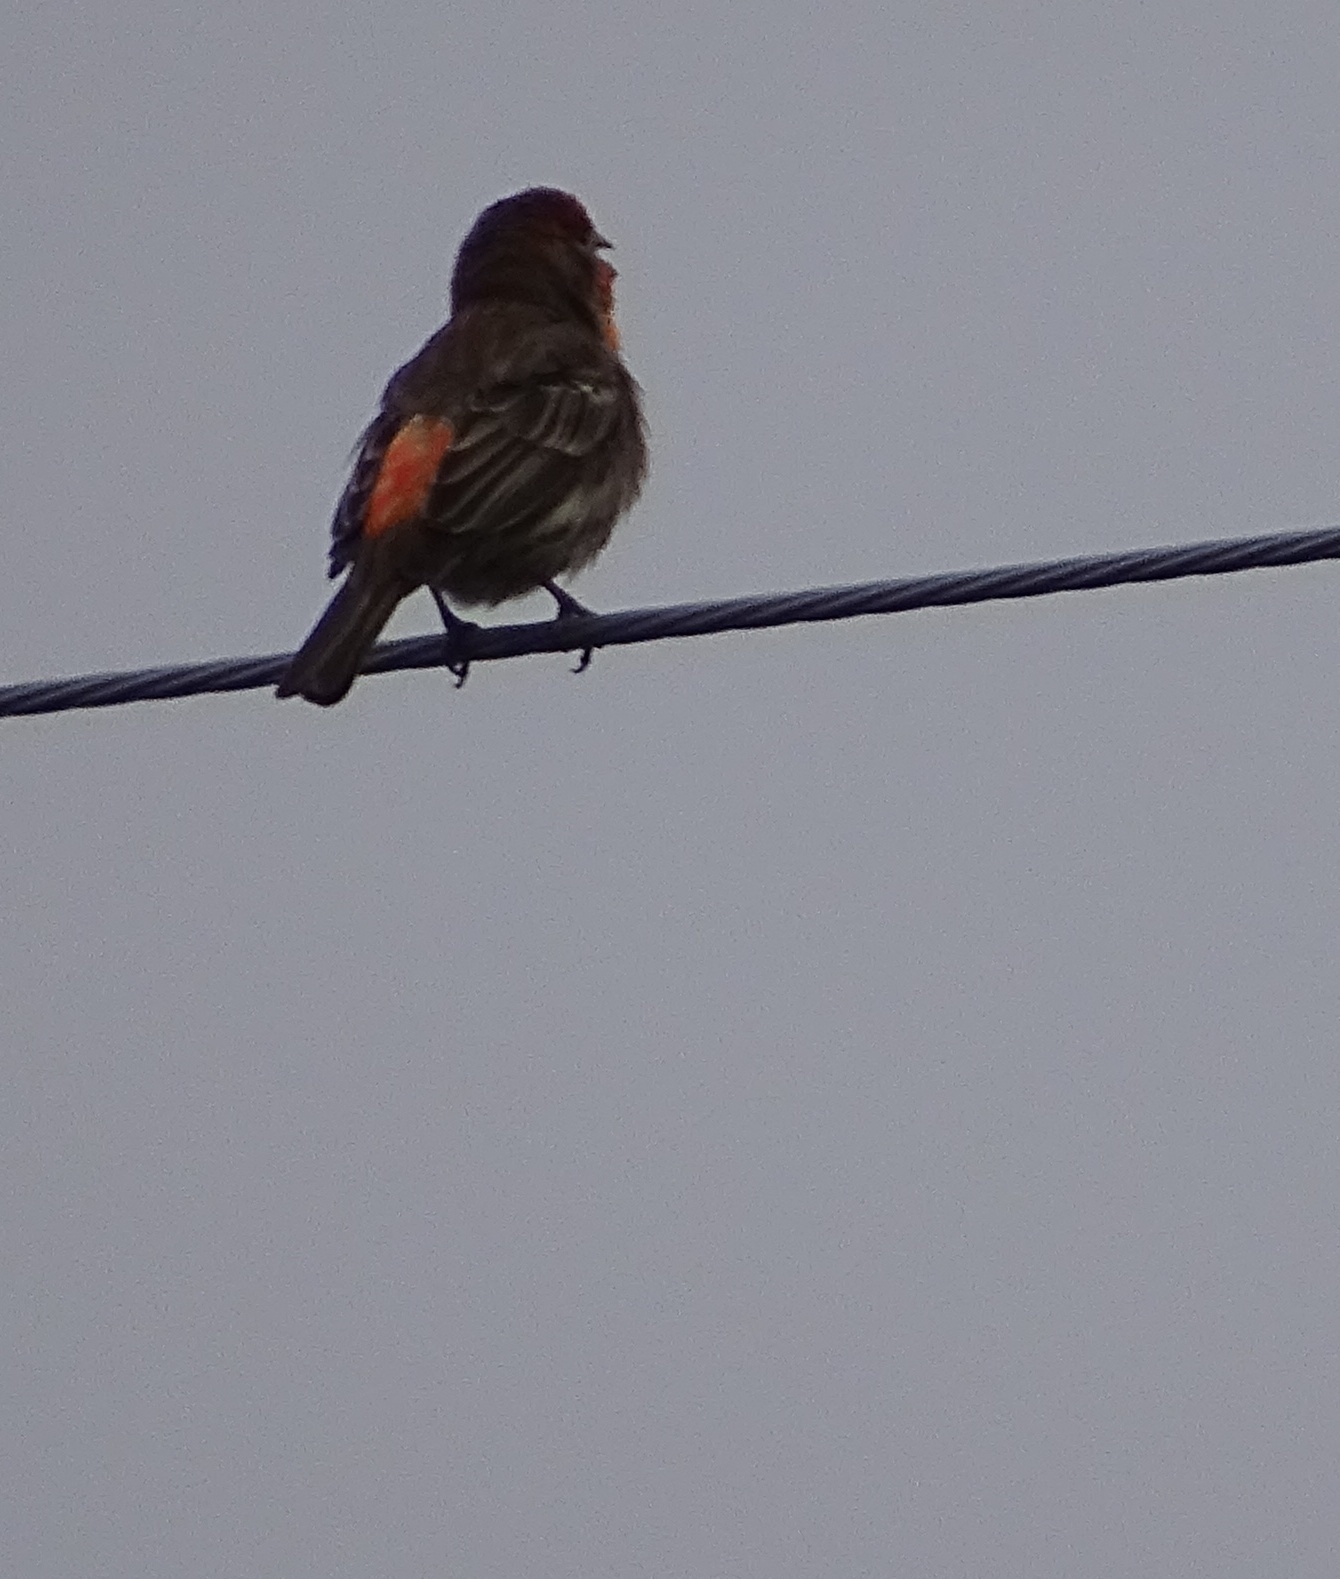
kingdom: Animalia
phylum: Chordata
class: Aves
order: Passeriformes
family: Fringillidae
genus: Haemorhous
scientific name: Haemorhous mexicanus
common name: House finch
